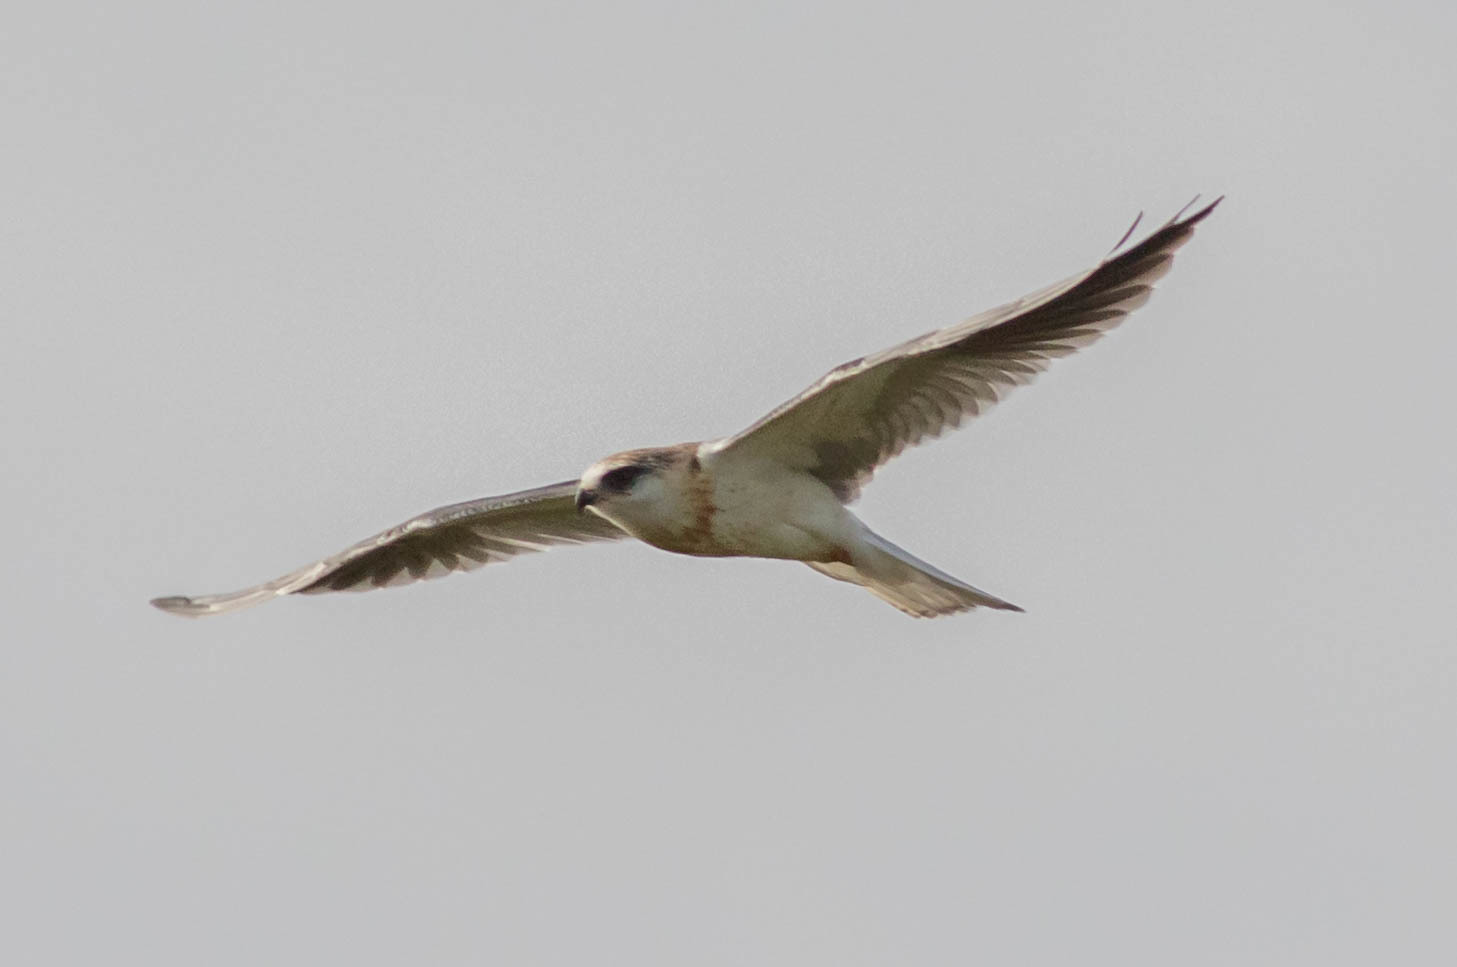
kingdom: Animalia
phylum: Chordata
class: Aves
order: Accipitriformes
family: Accipitridae
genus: Elanus
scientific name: Elanus leucurus
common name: White-tailed kite
